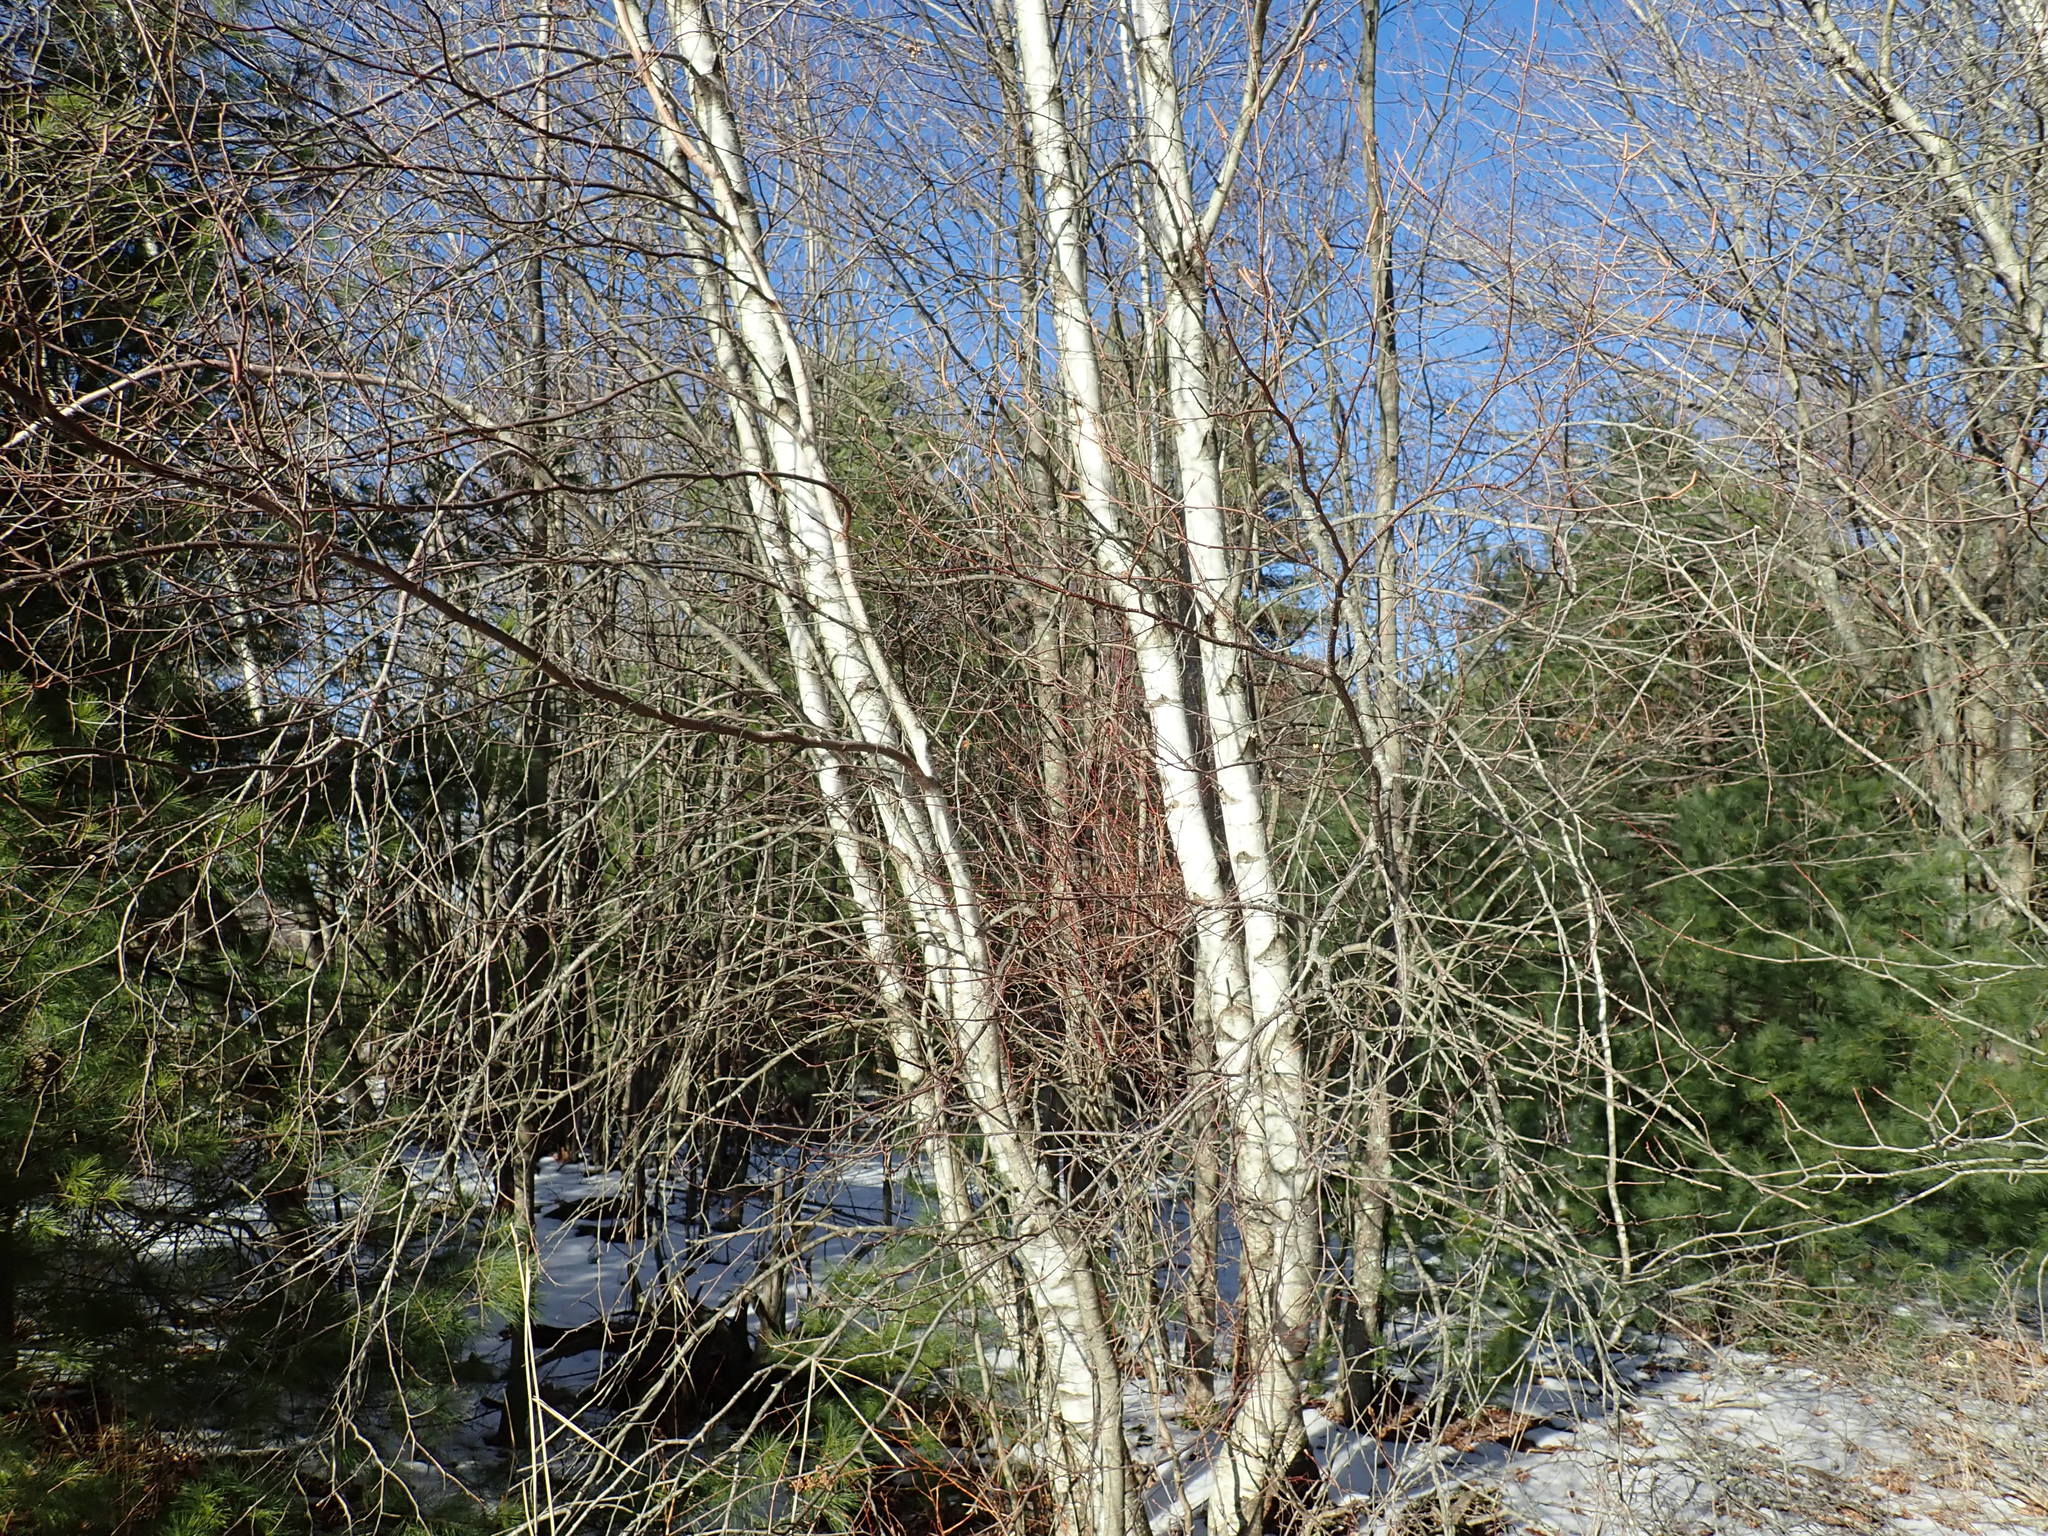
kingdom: Plantae
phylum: Tracheophyta
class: Magnoliopsida
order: Fagales
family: Betulaceae
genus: Betula
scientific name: Betula populifolia
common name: Fire birch
